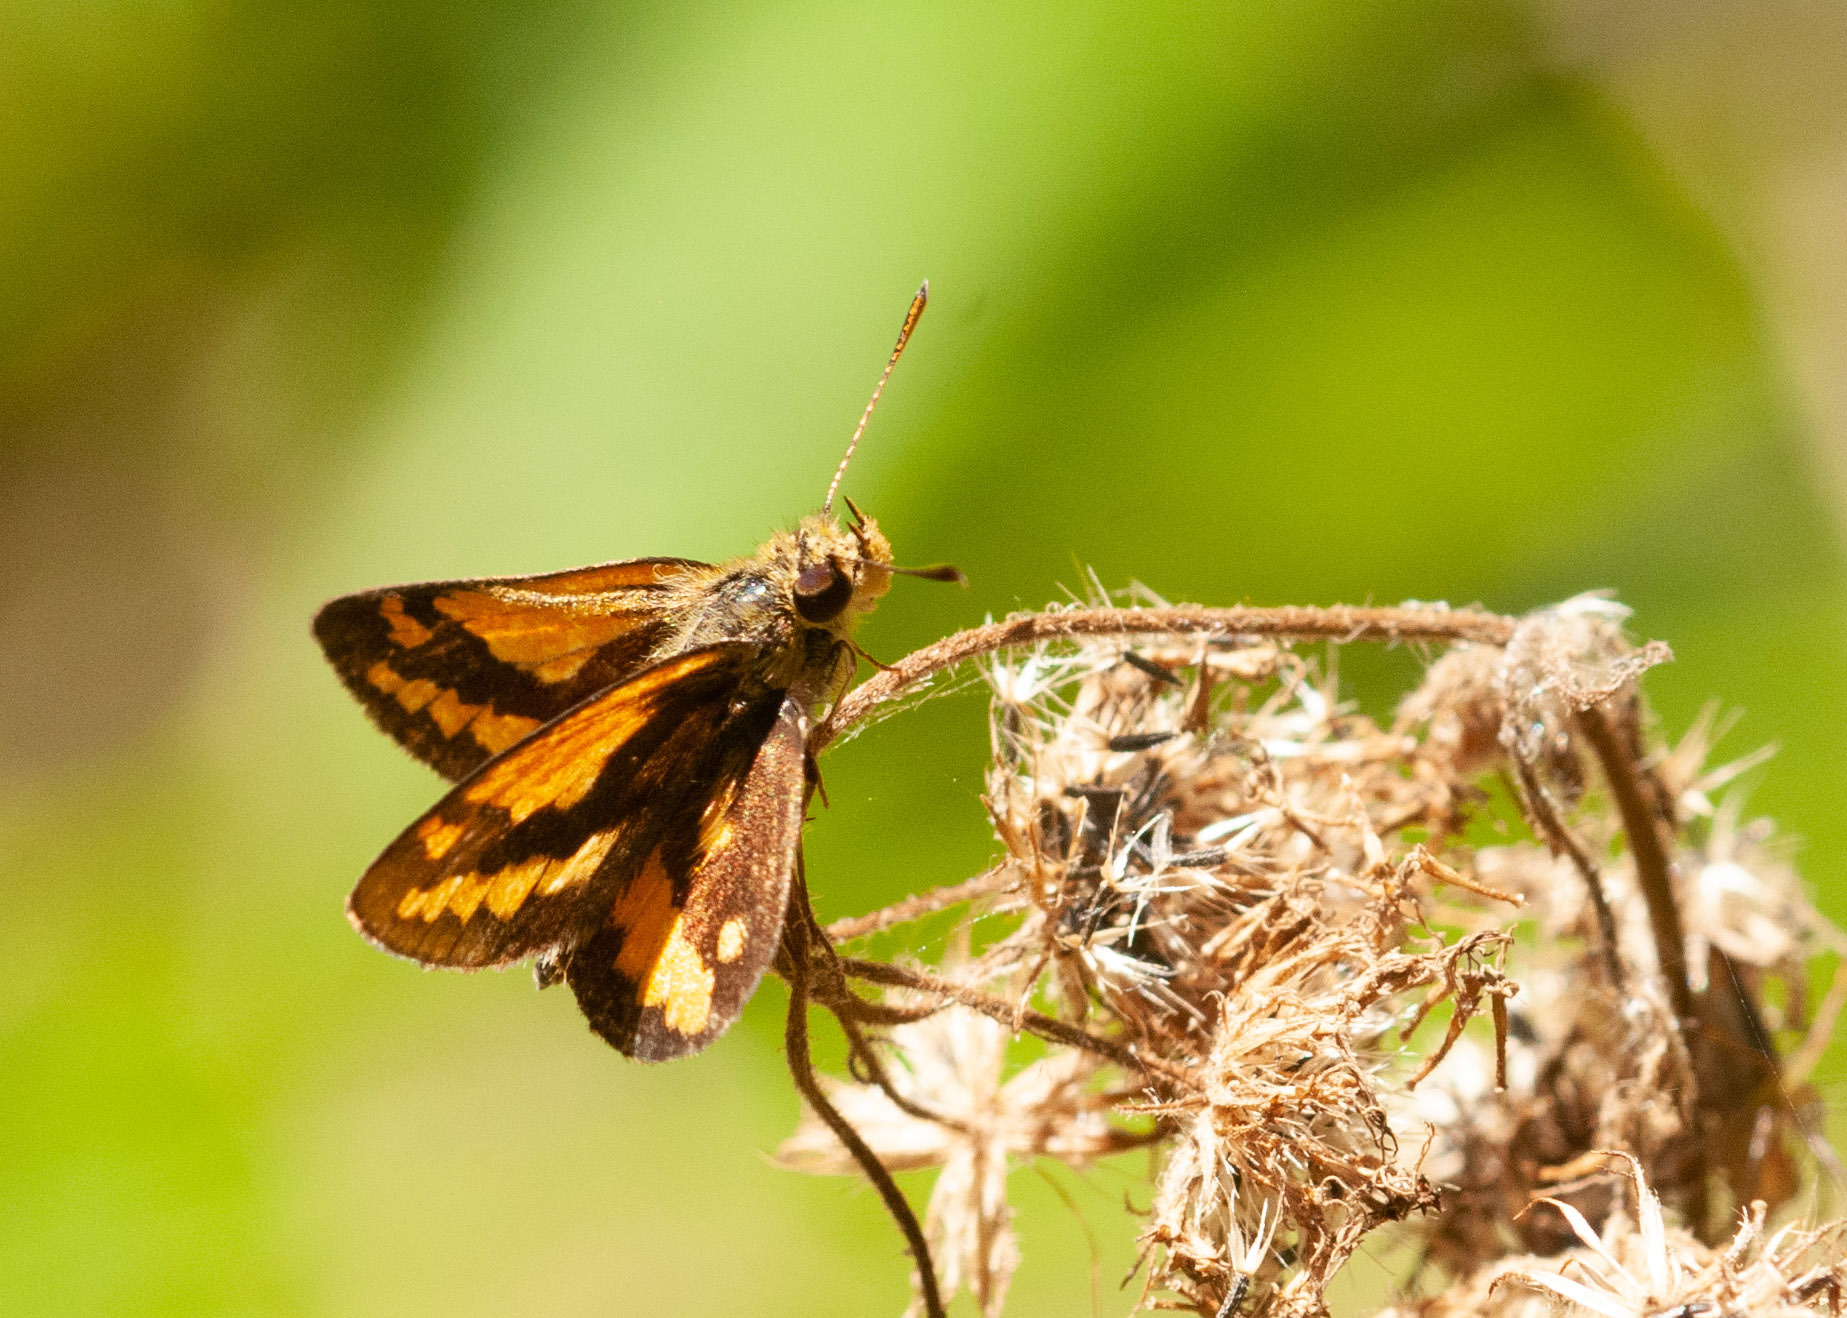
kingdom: Animalia
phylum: Arthropoda
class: Insecta
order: Lepidoptera
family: Hesperiidae
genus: Suniana
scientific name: Suniana sunias
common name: Wide-brand grass-dart
